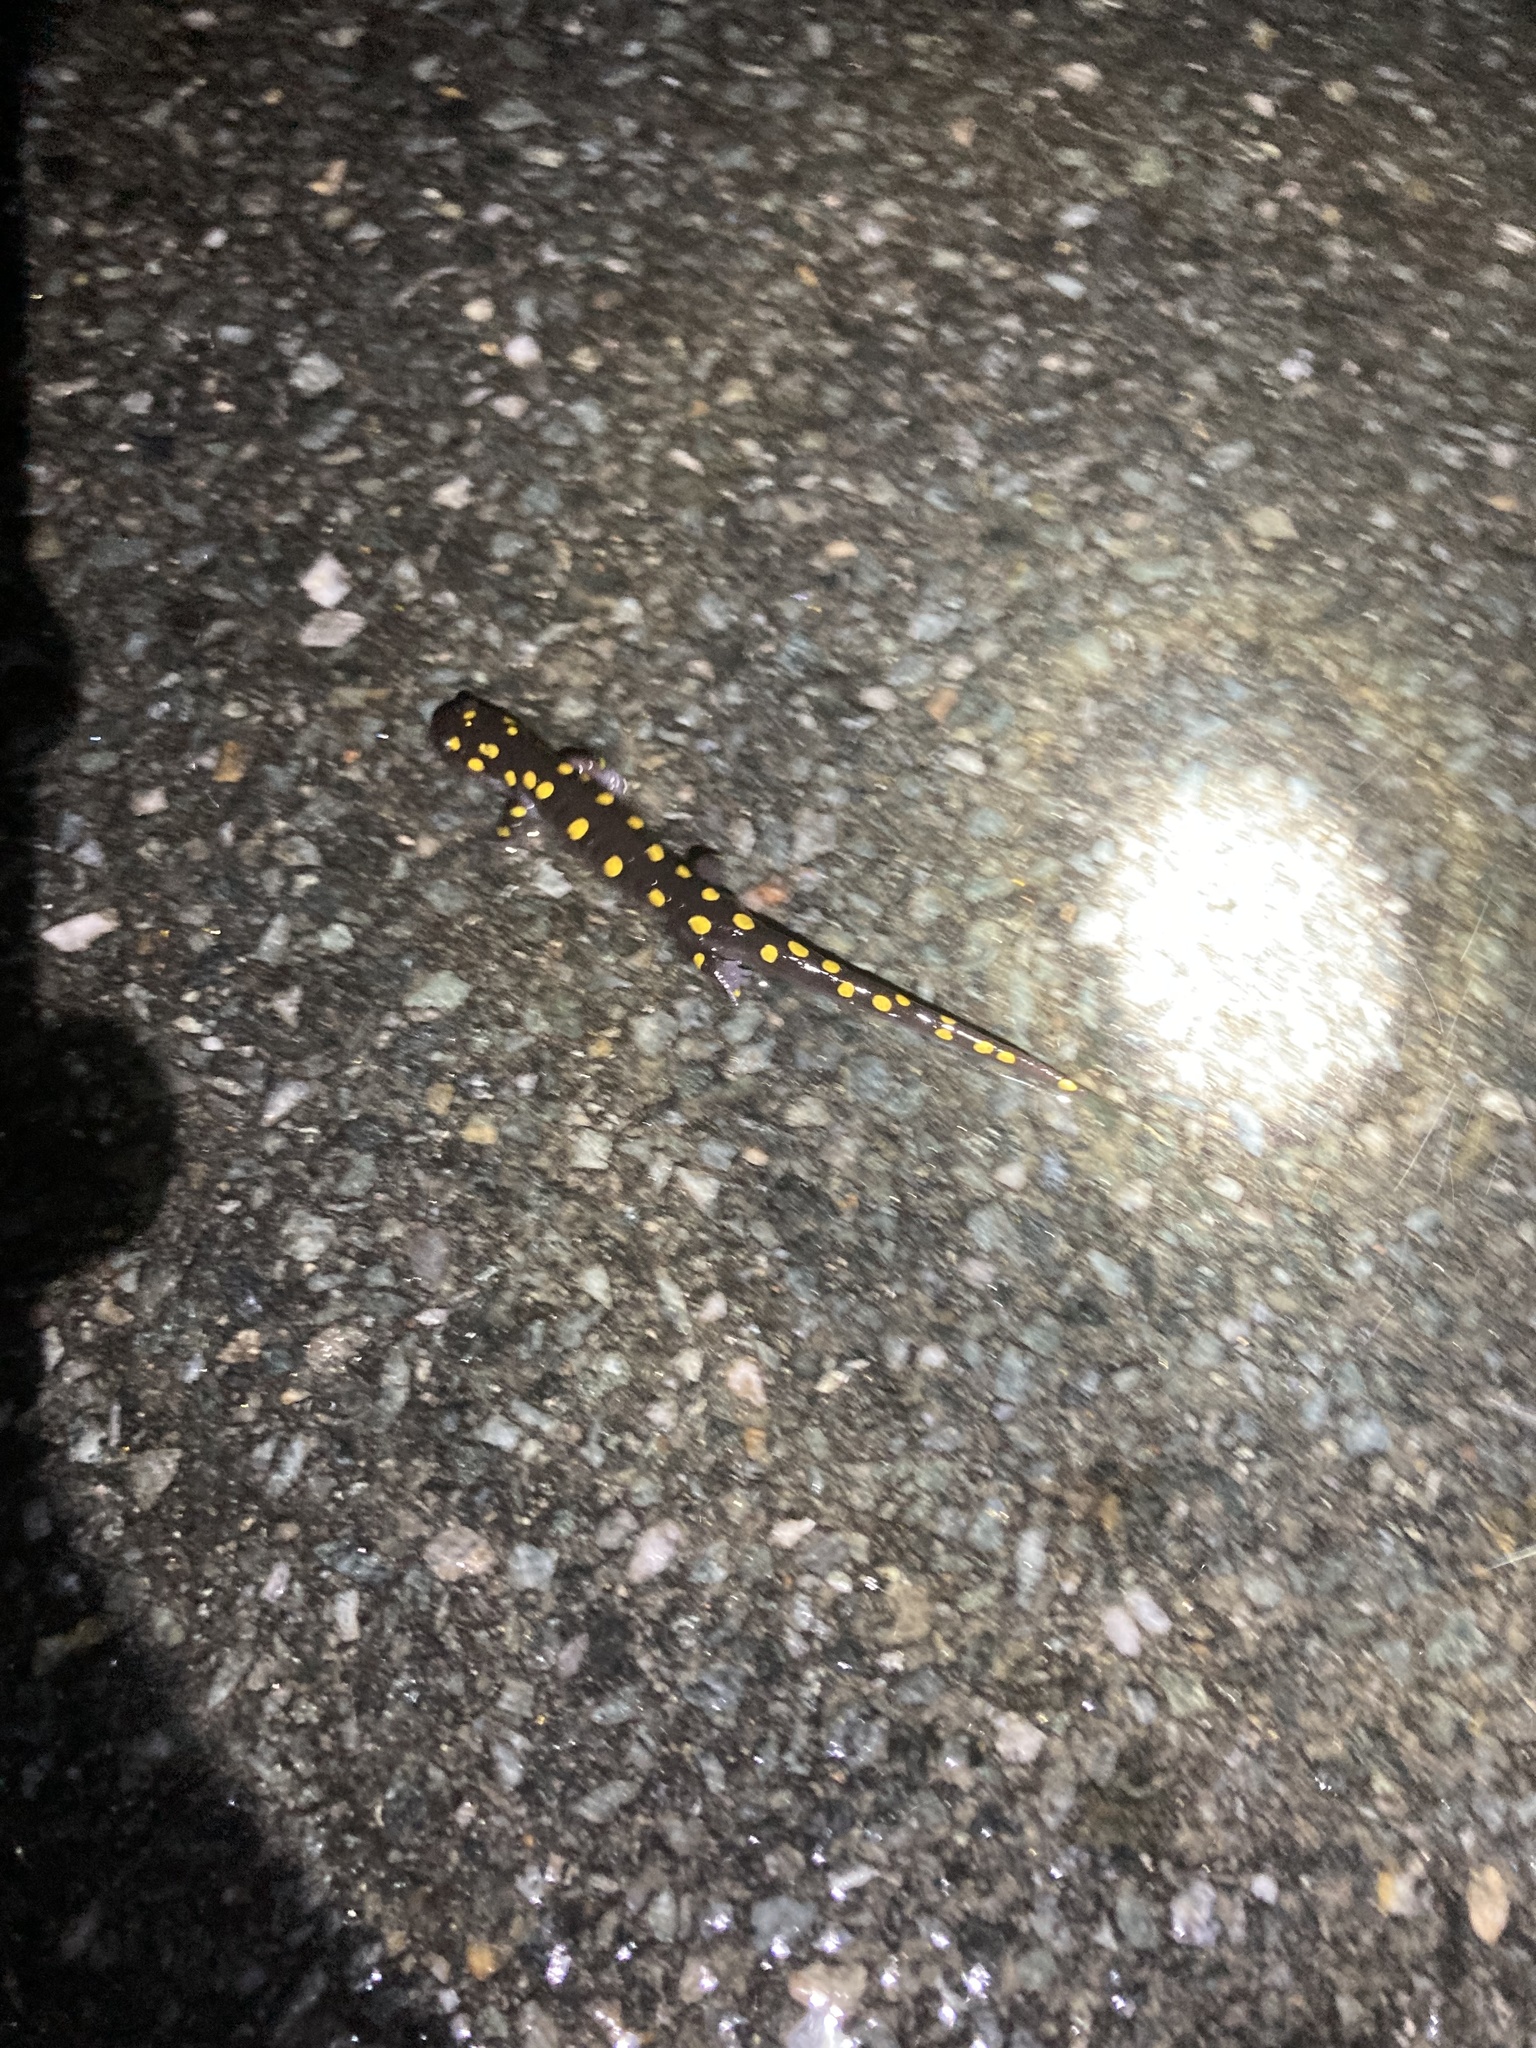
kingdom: Animalia
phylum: Chordata
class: Amphibia
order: Caudata
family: Ambystomatidae
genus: Ambystoma
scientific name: Ambystoma maculatum
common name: Spotted salamander
